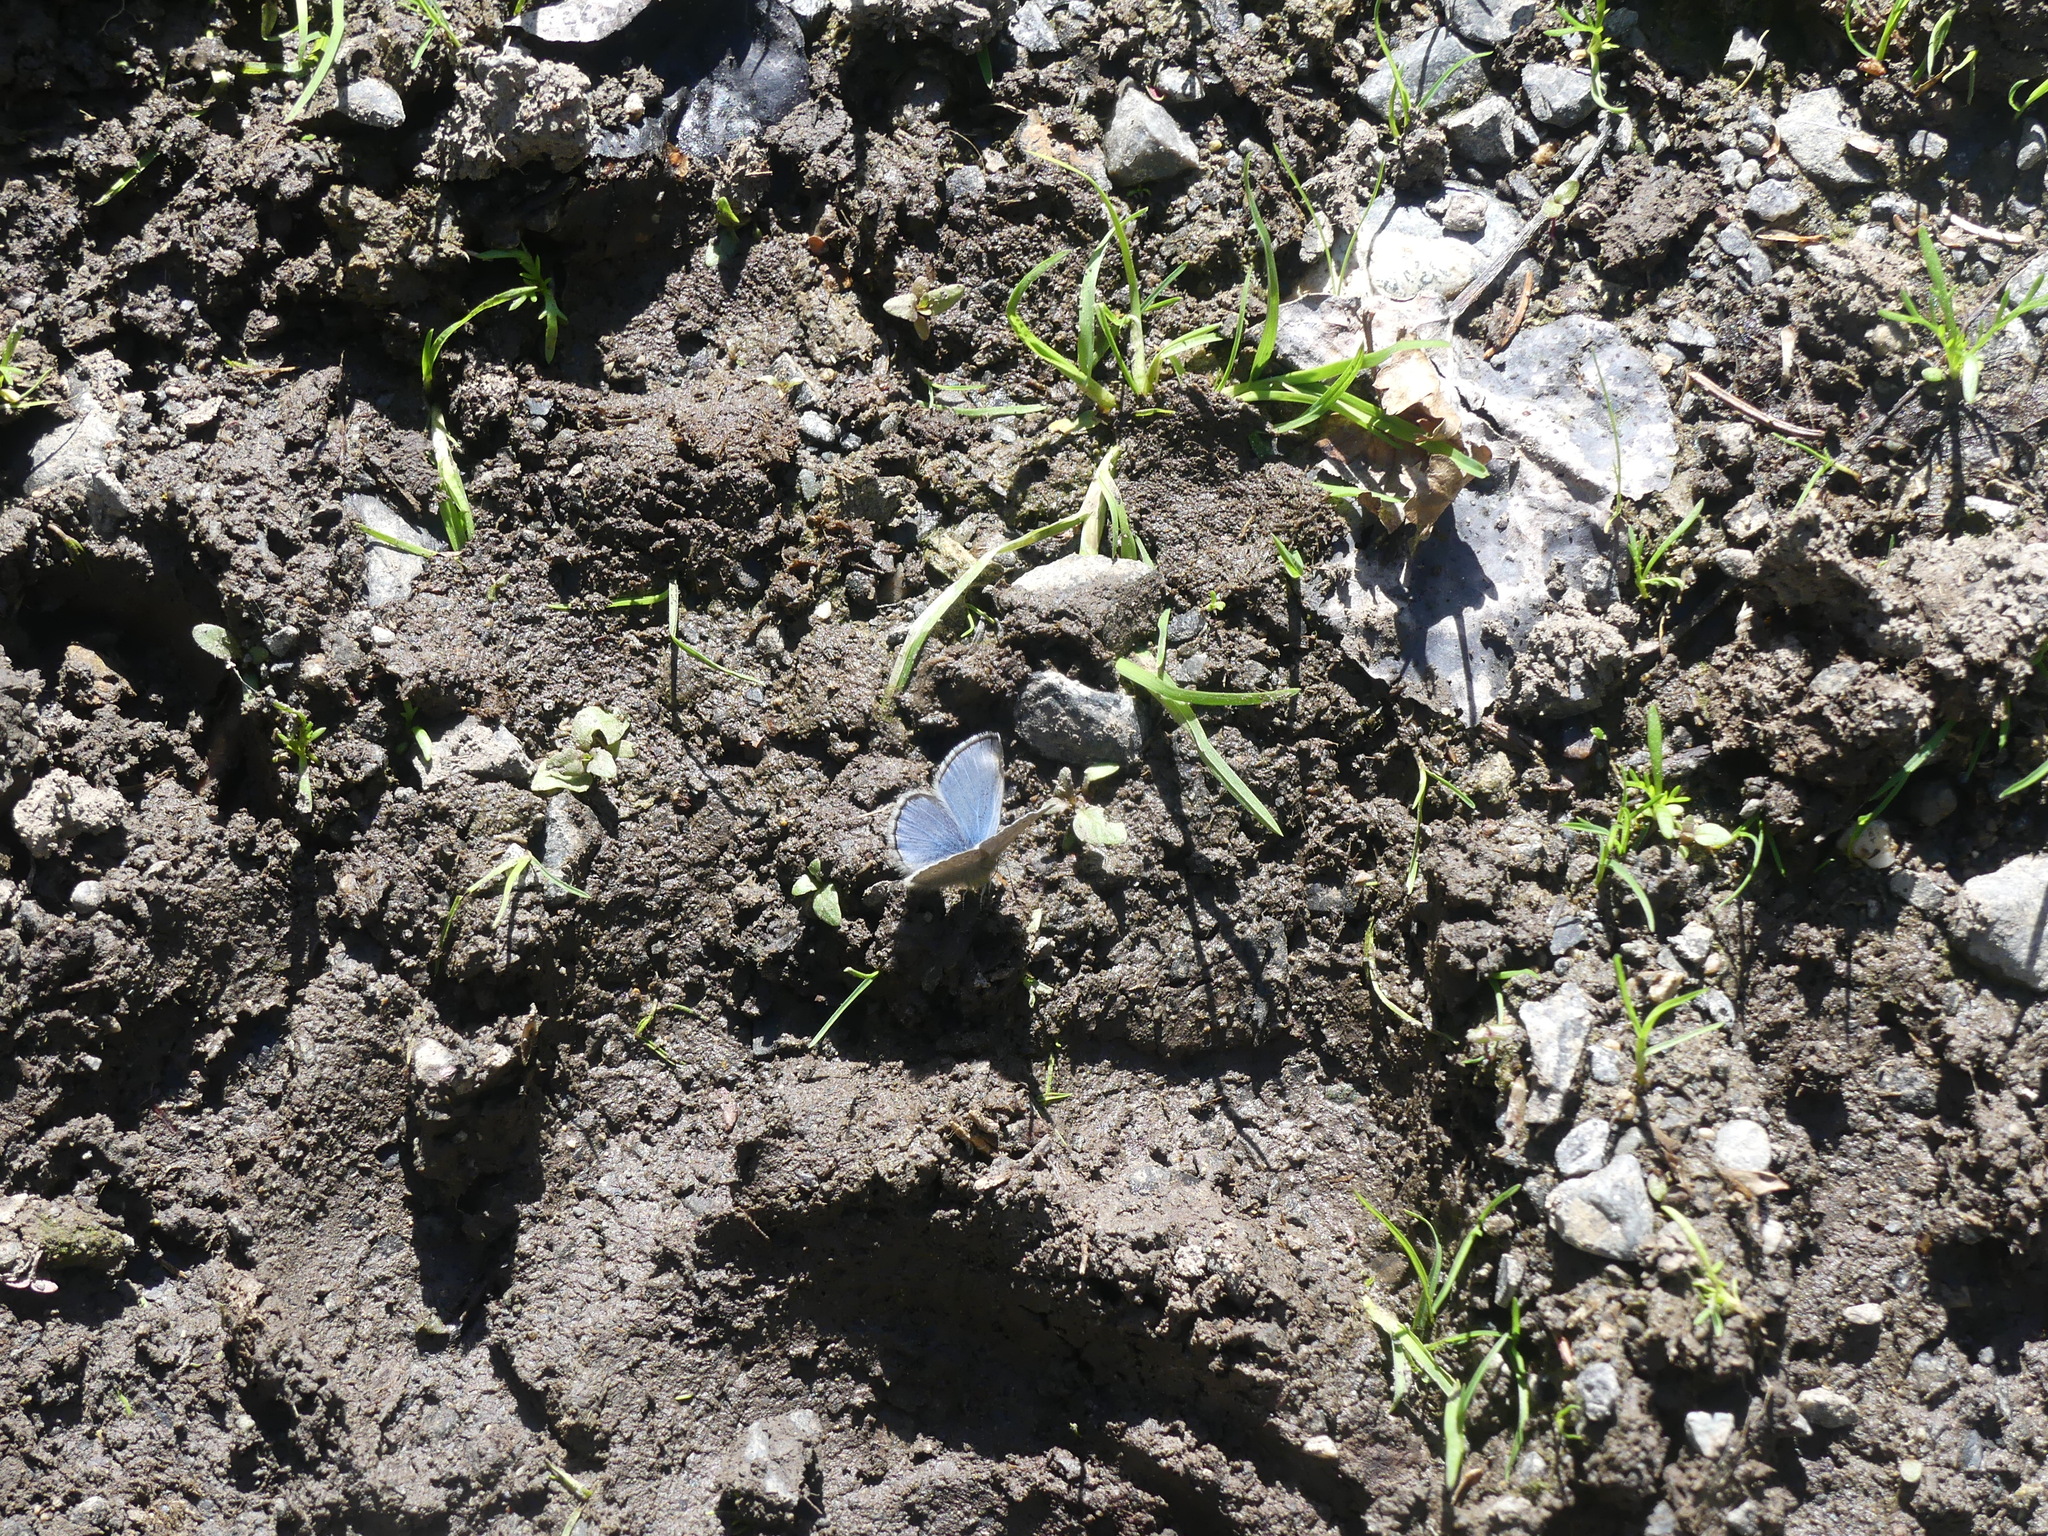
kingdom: Animalia
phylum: Arthropoda
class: Insecta
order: Lepidoptera
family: Lycaenidae
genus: Glaucopsyche
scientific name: Glaucopsyche lygdamus
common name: Silvery blue
